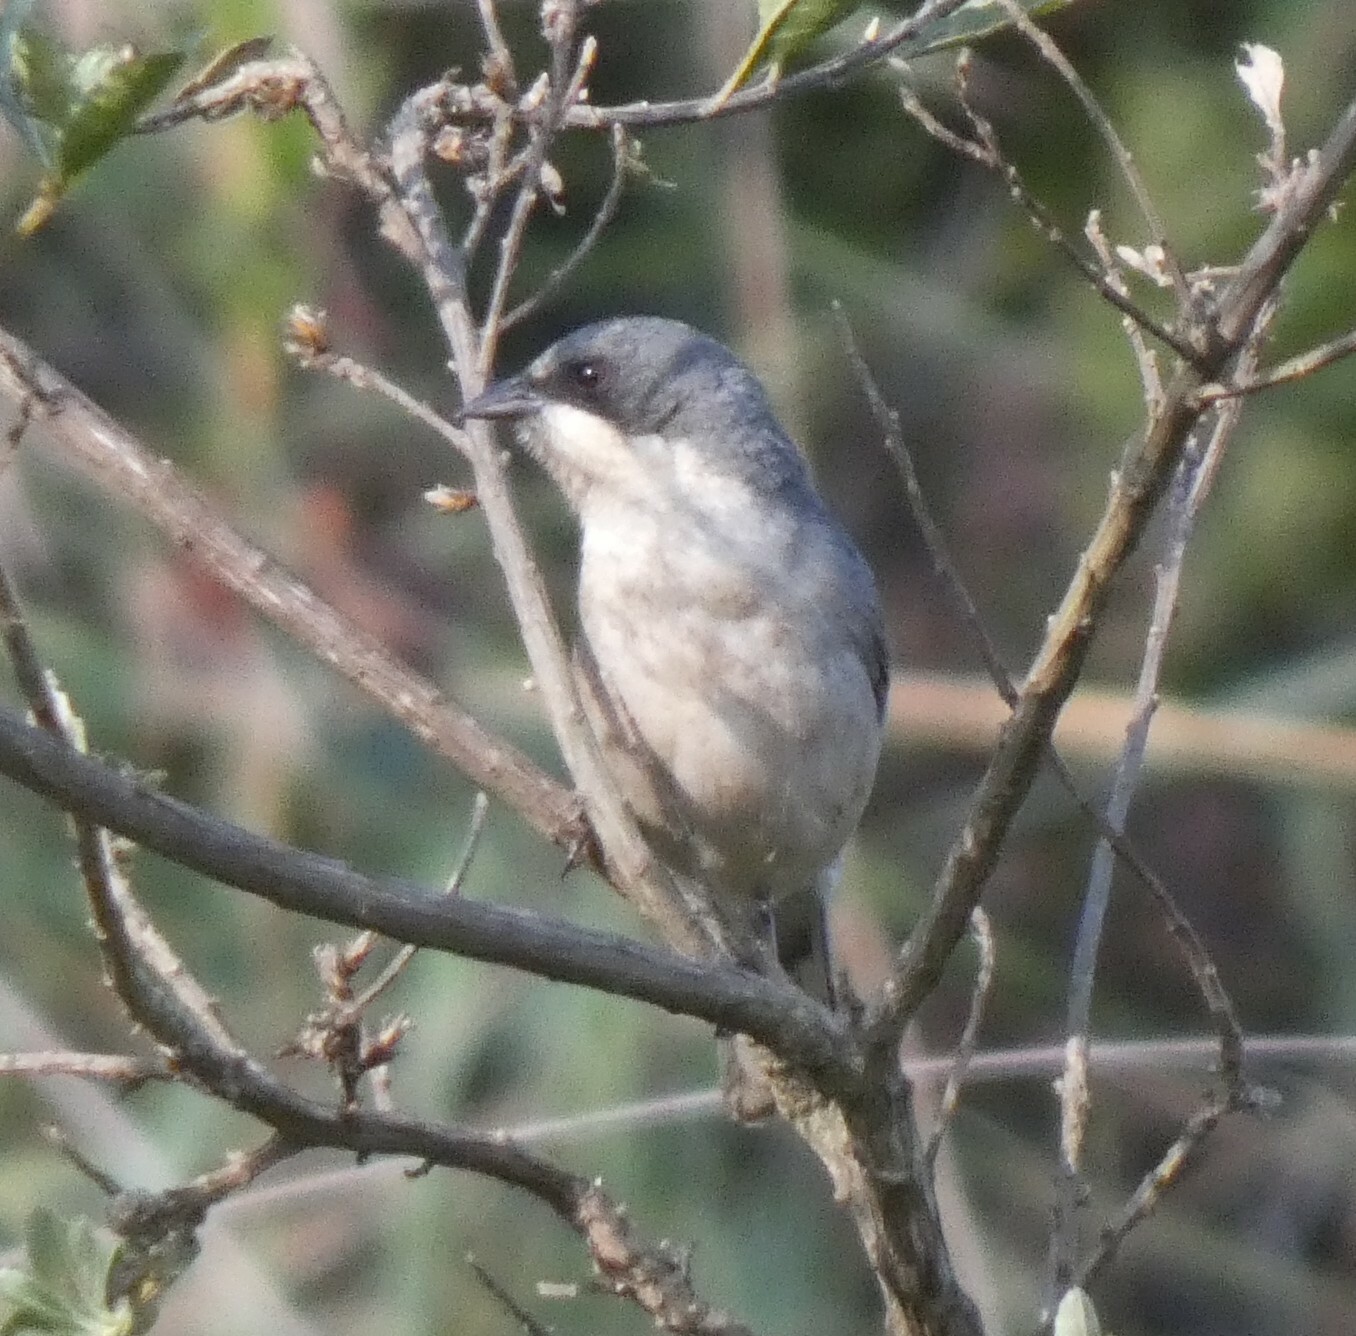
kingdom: Animalia
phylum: Chordata
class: Aves
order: Passeriformes
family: Thraupidae
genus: Microspingus
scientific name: Microspingus cinereus
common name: Cinereous warbling-finch
